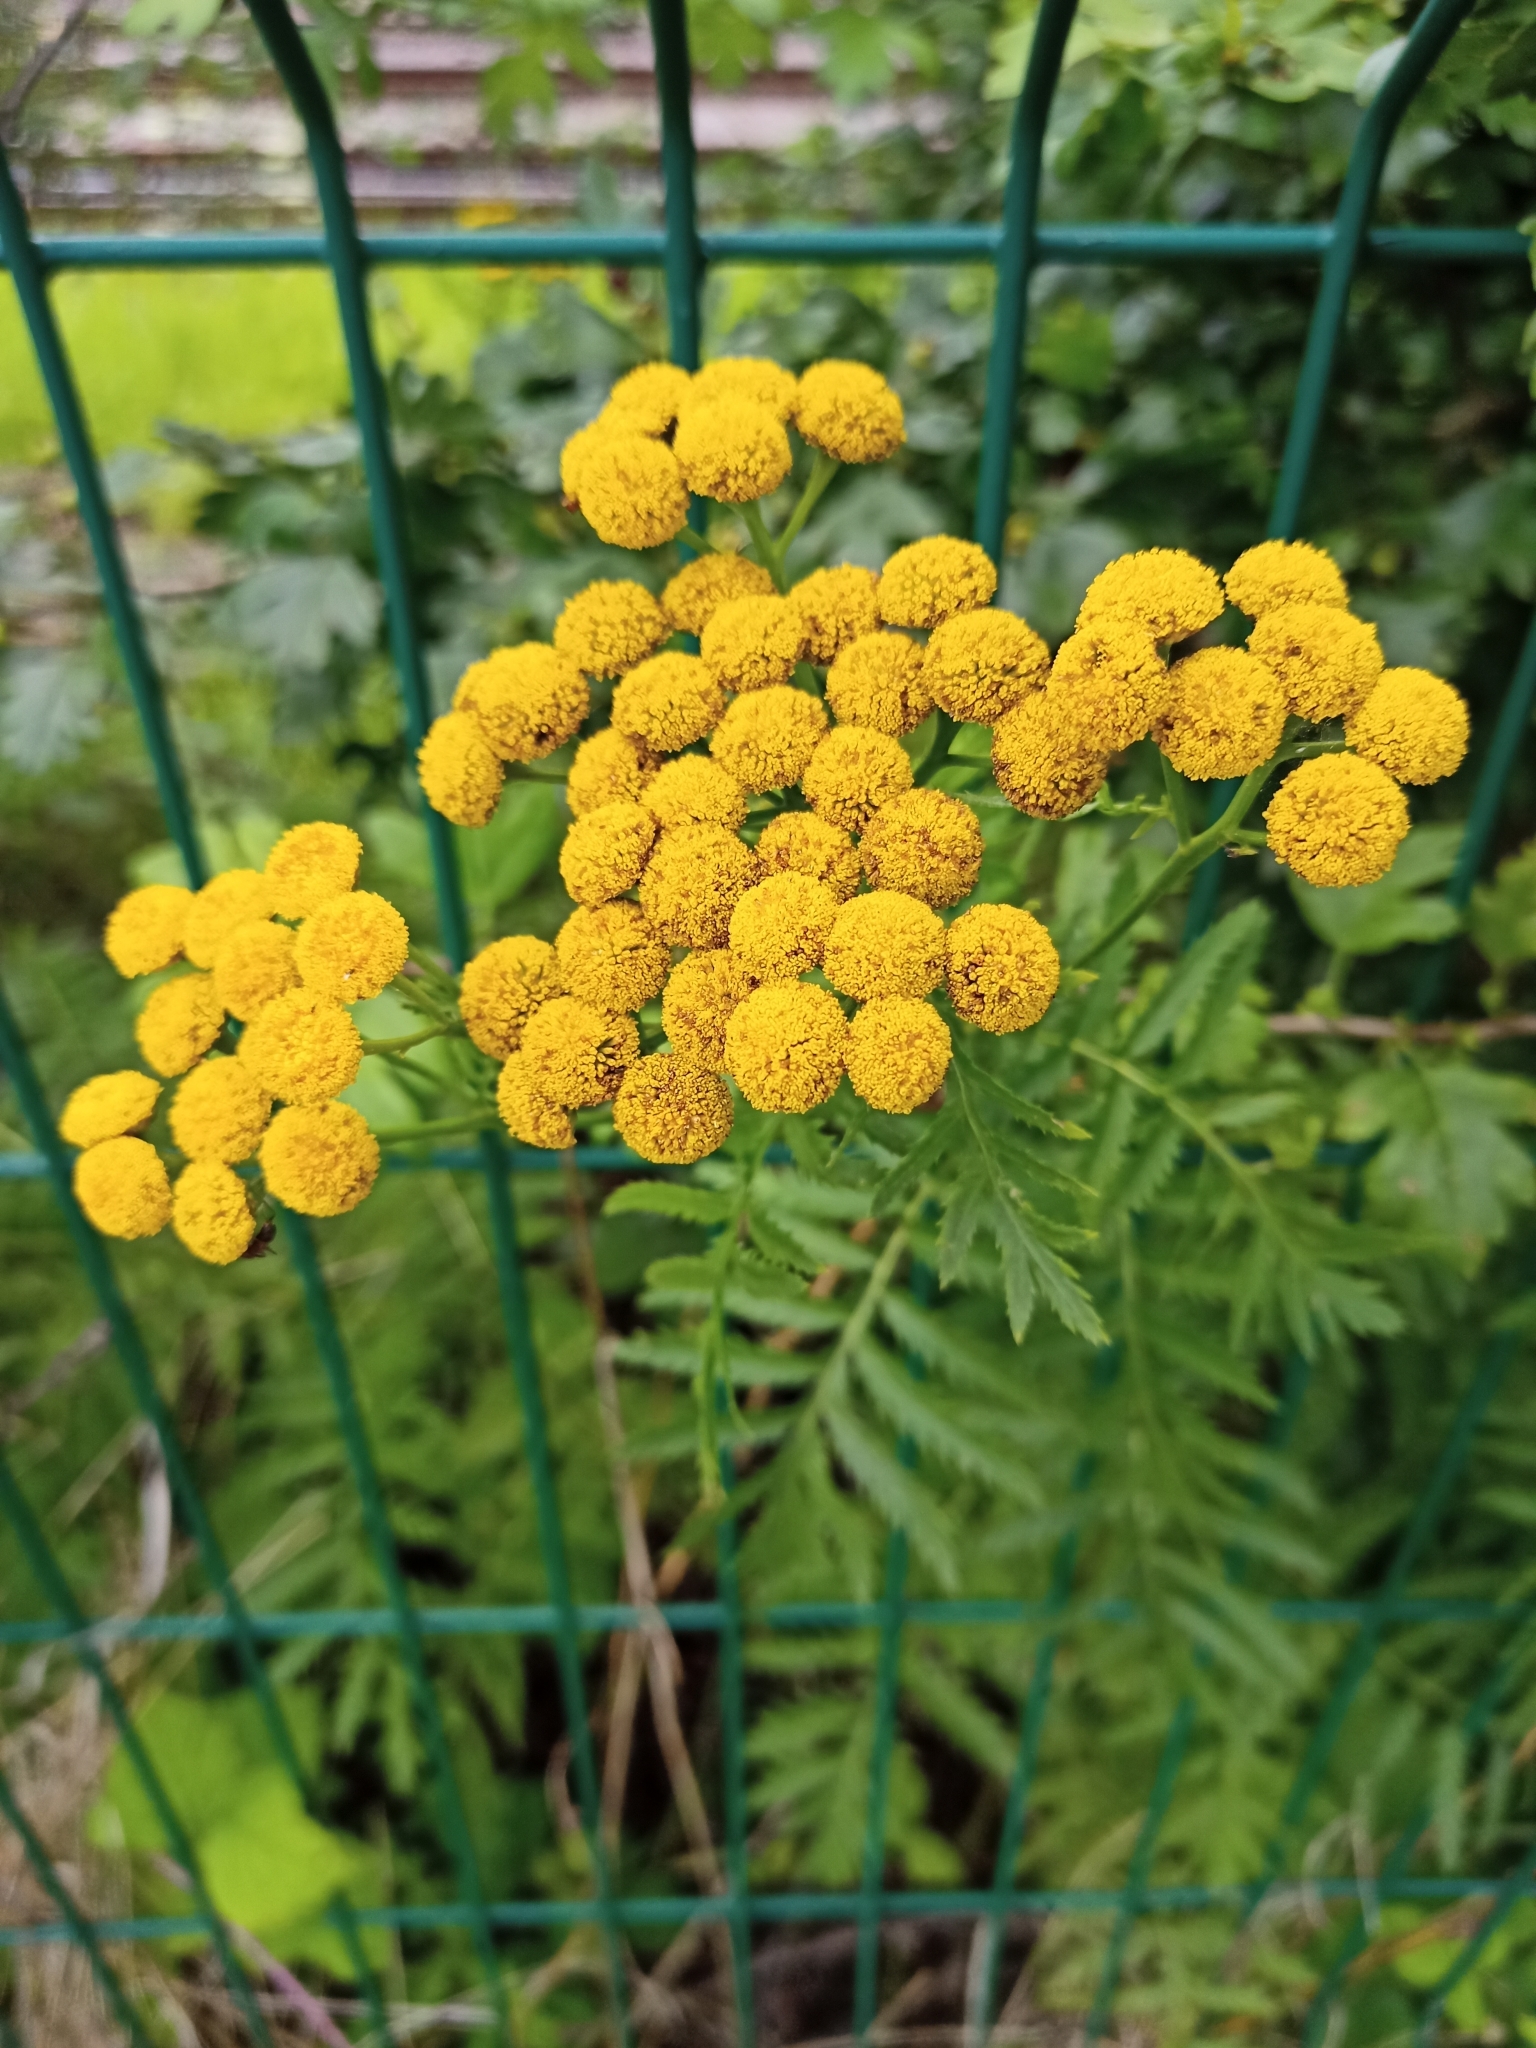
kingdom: Plantae
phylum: Tracheophyta
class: Magnoliopsida
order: Asterales
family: Asteraceae
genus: Tanacetum
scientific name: Tanacetum vulgare
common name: Common tansy
